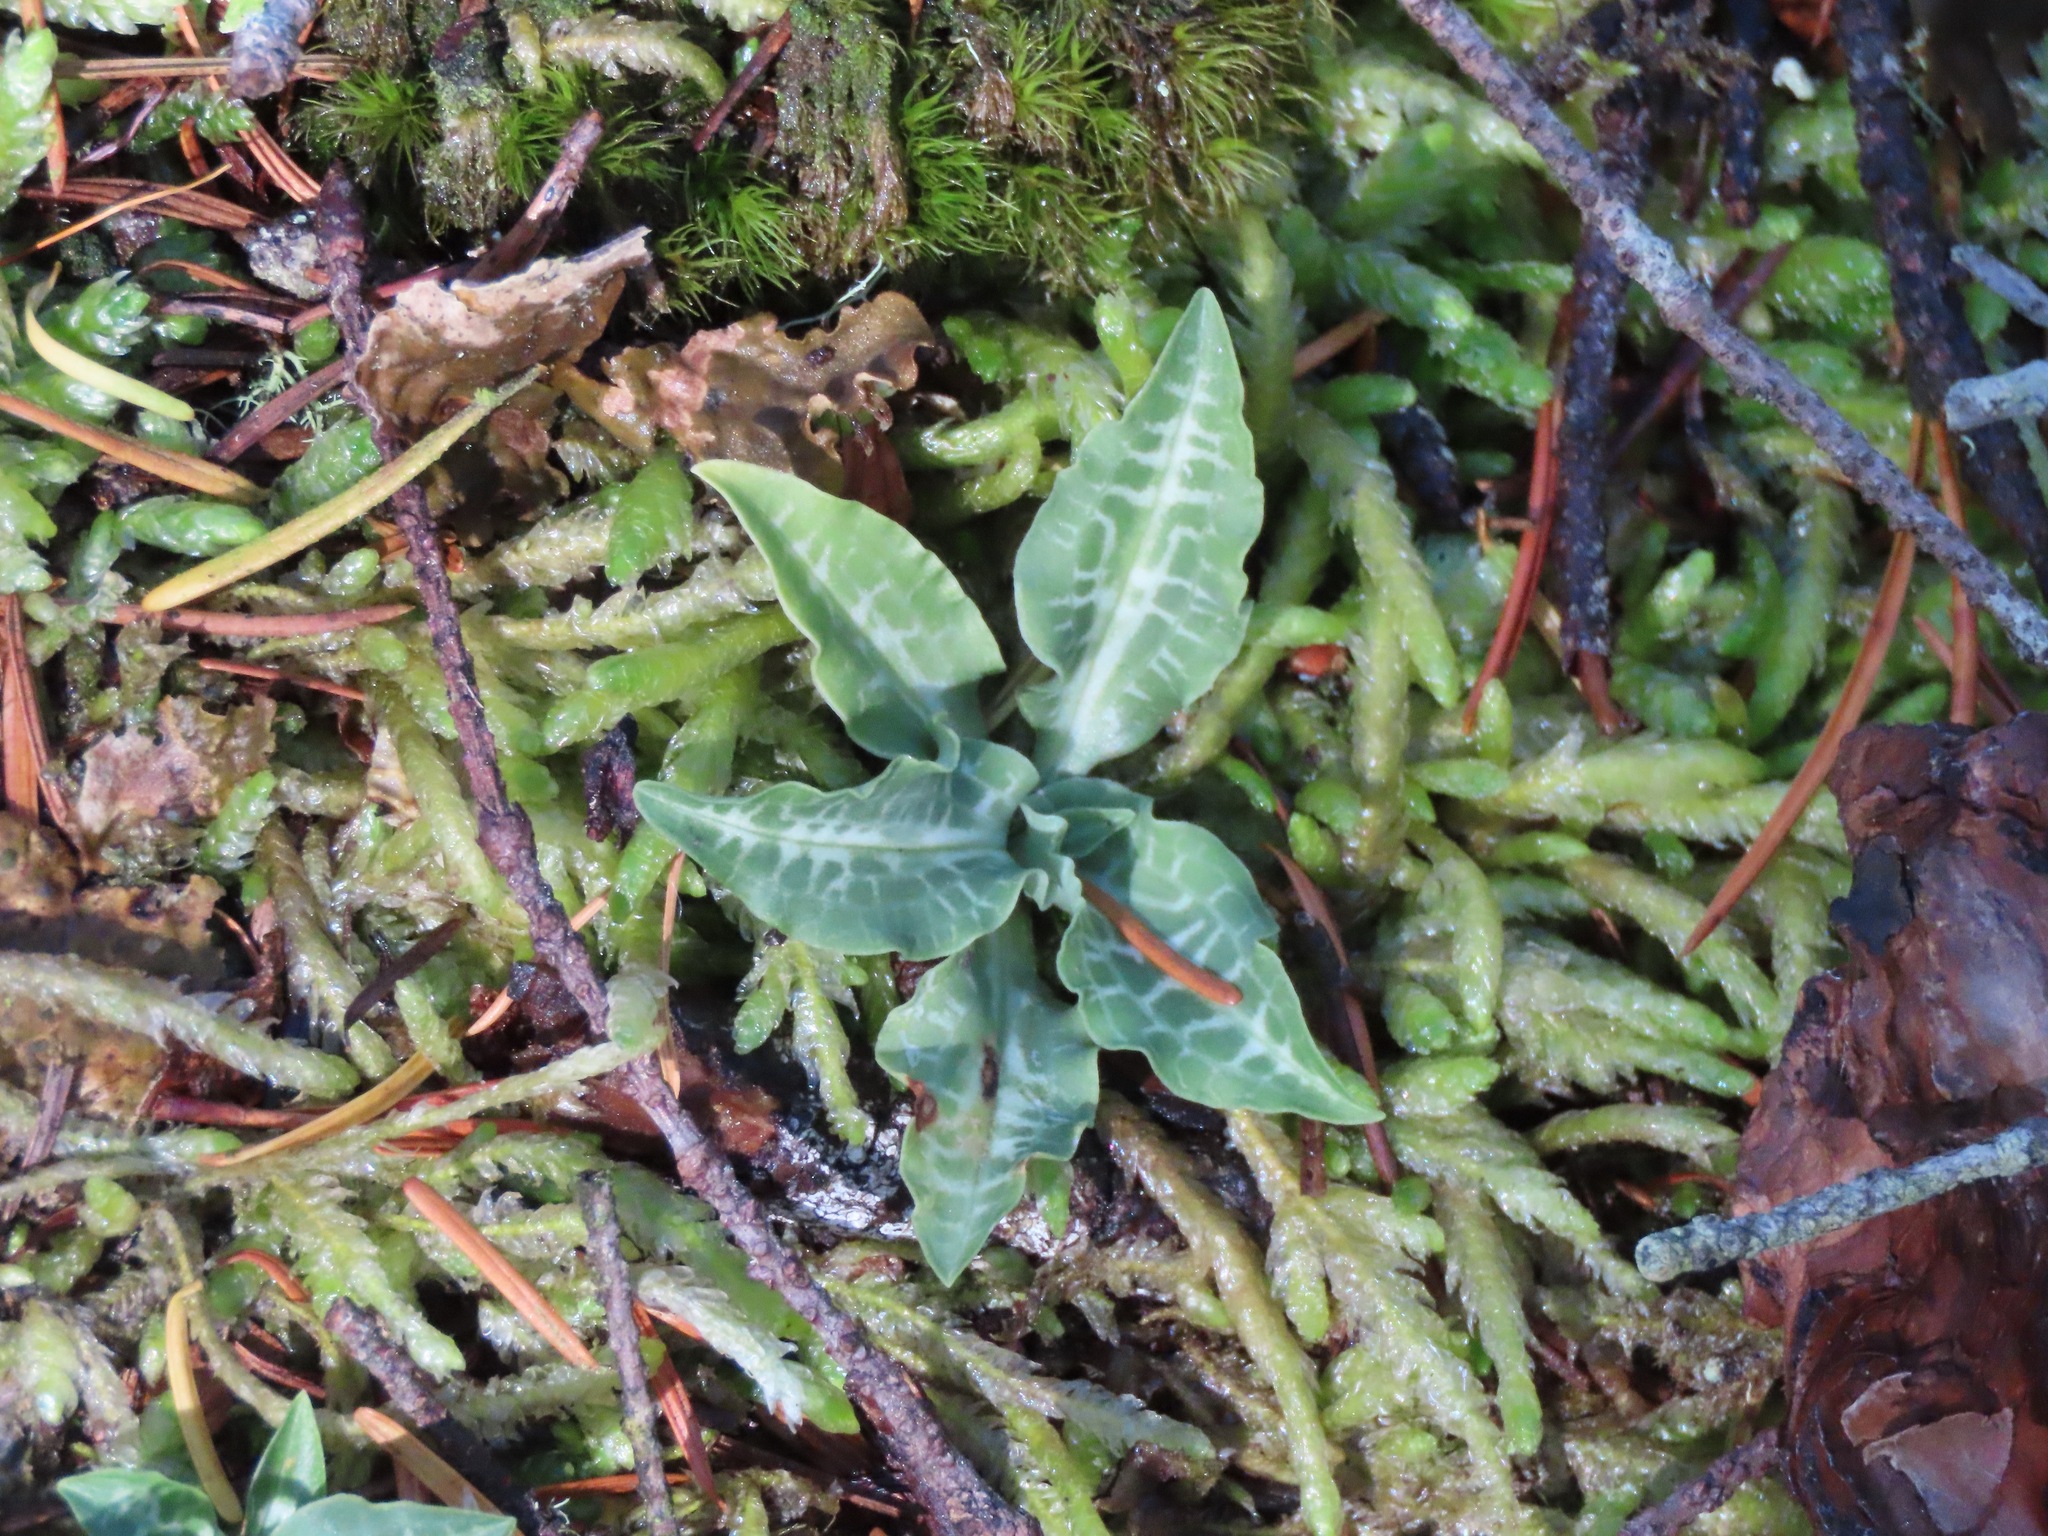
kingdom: Plantae
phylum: Tracheophyta
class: Liliopsida
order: Asparagales
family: Orchidaceae
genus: Goodyera
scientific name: Goodyera oblongifolia
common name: Giant rattlesnake-plantain
